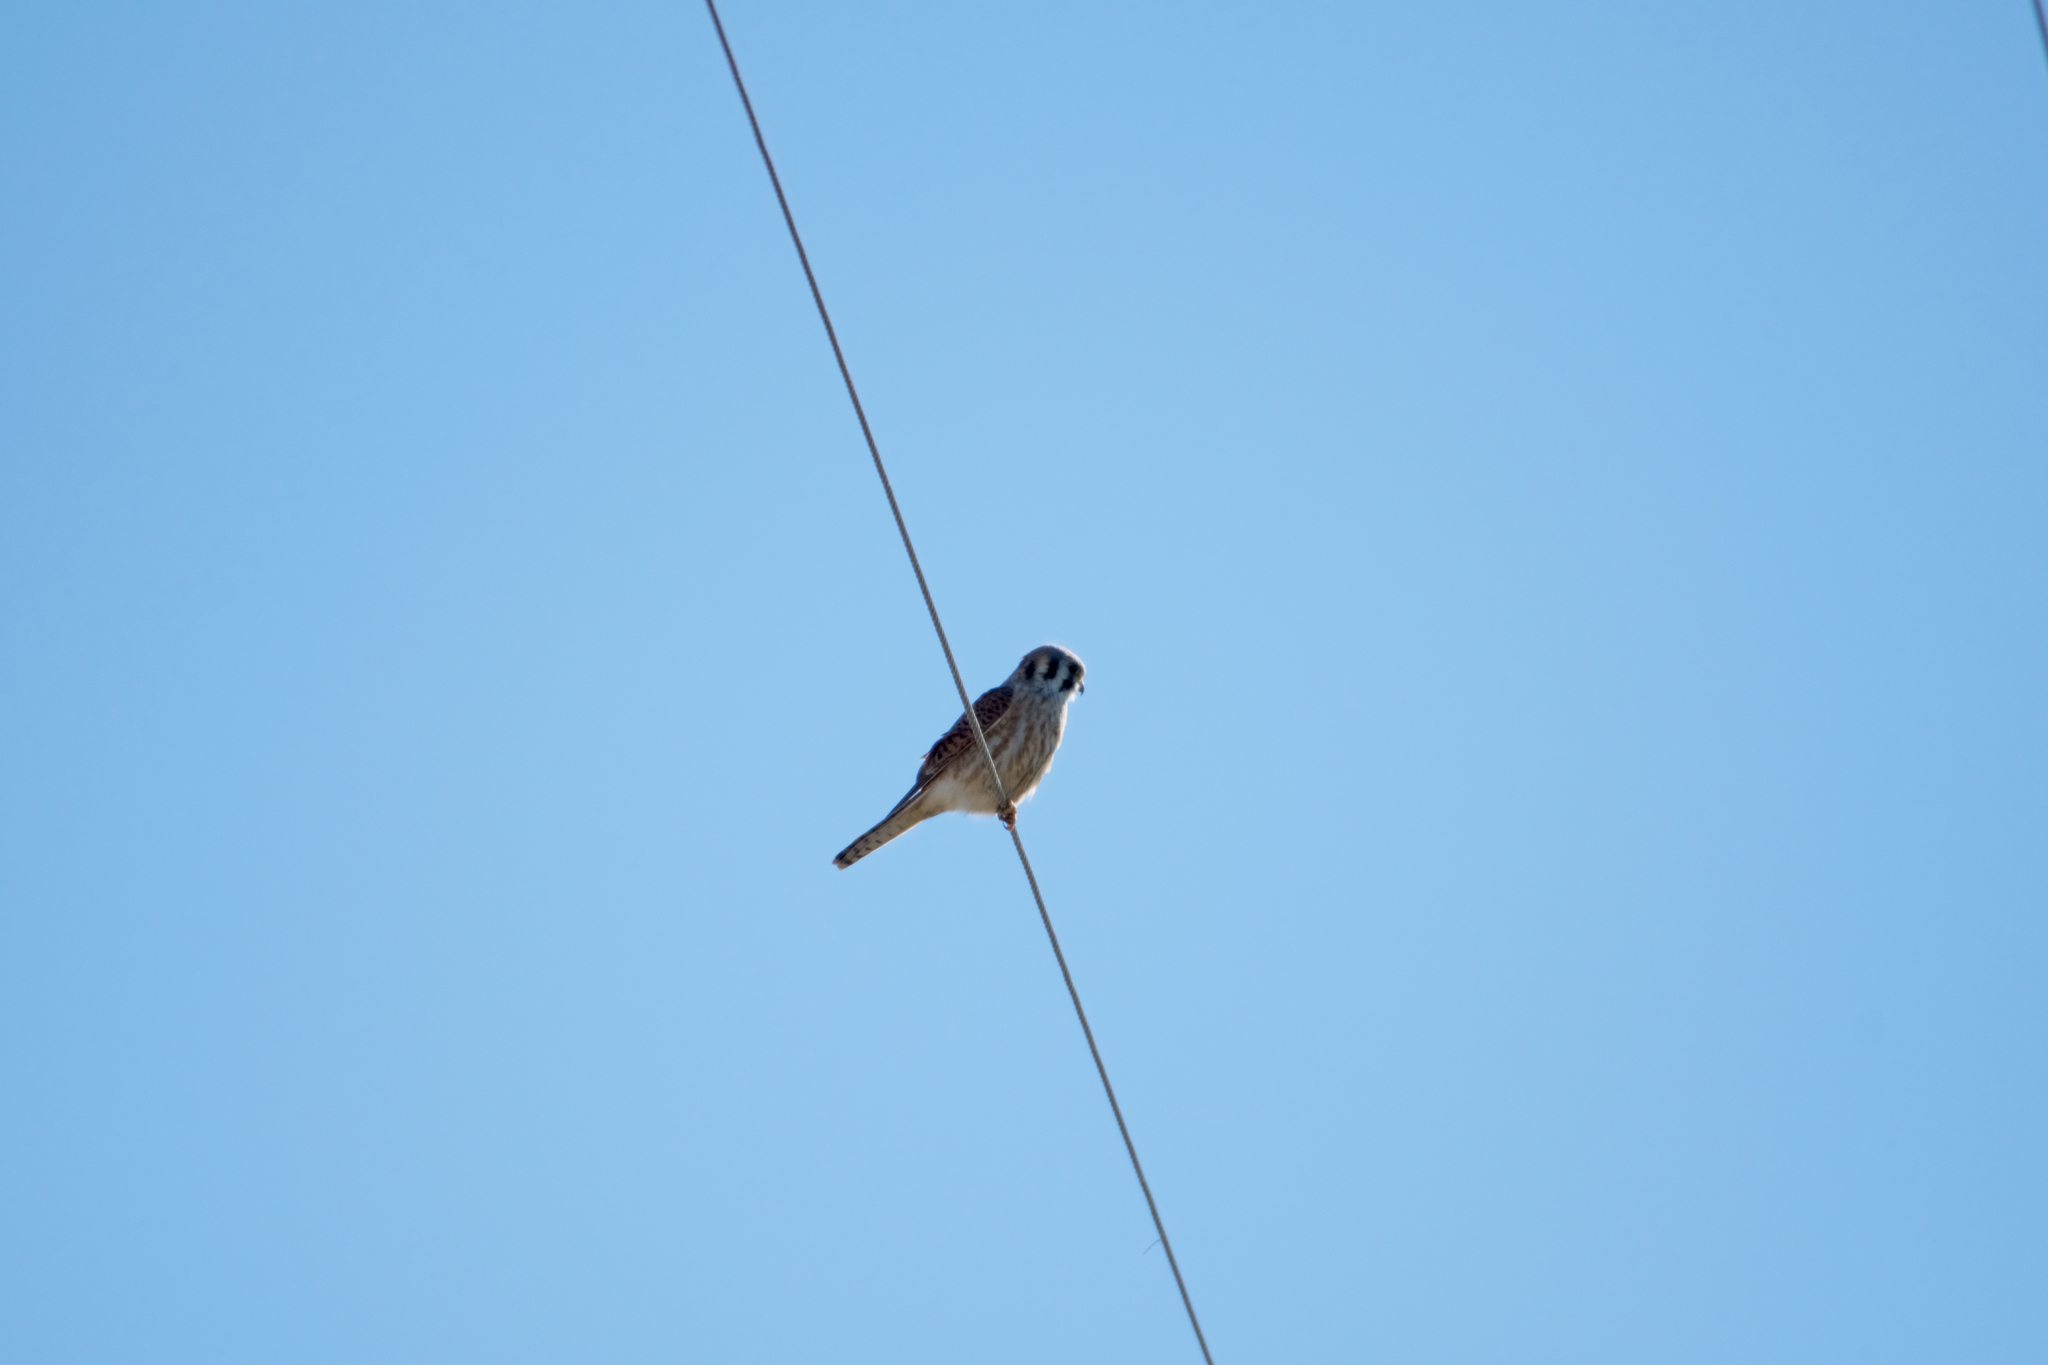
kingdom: Animalia
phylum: Chordata
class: Aves
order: Falconiformes
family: Falconidae
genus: Falco
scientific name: Falco sparverius
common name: American kestrel
